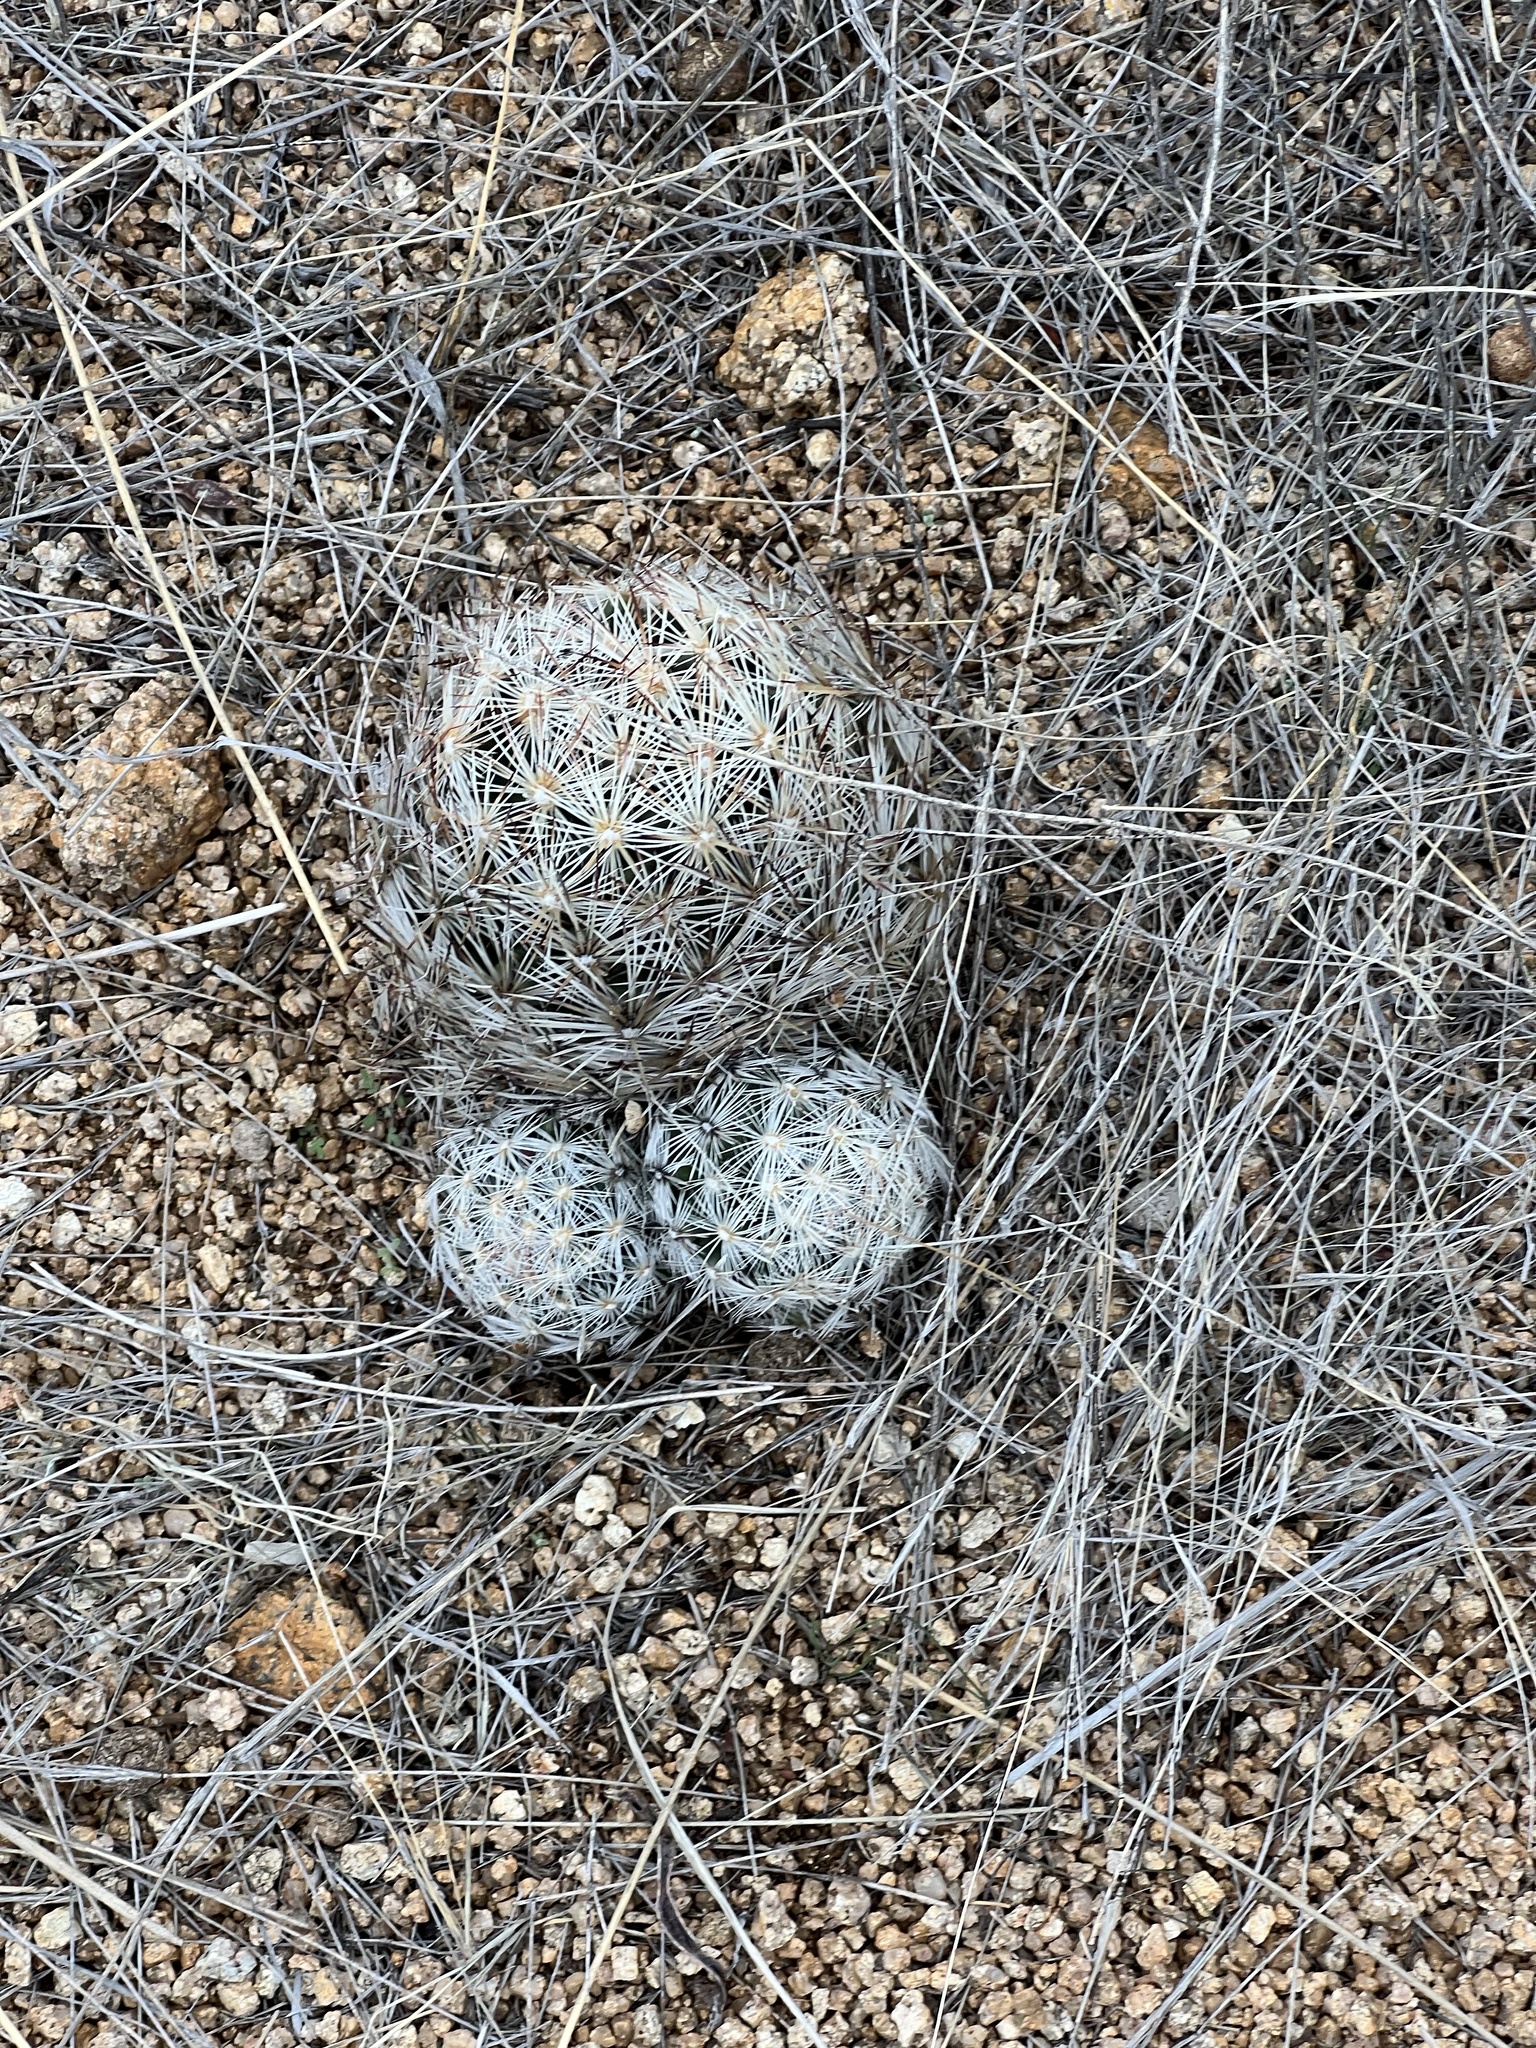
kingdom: Plantae
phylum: Tracheophyta
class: Magnoliopsida
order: Caryophyllales
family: Cactaceae
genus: Pelecyphora
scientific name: Pelecyphora vivipara
